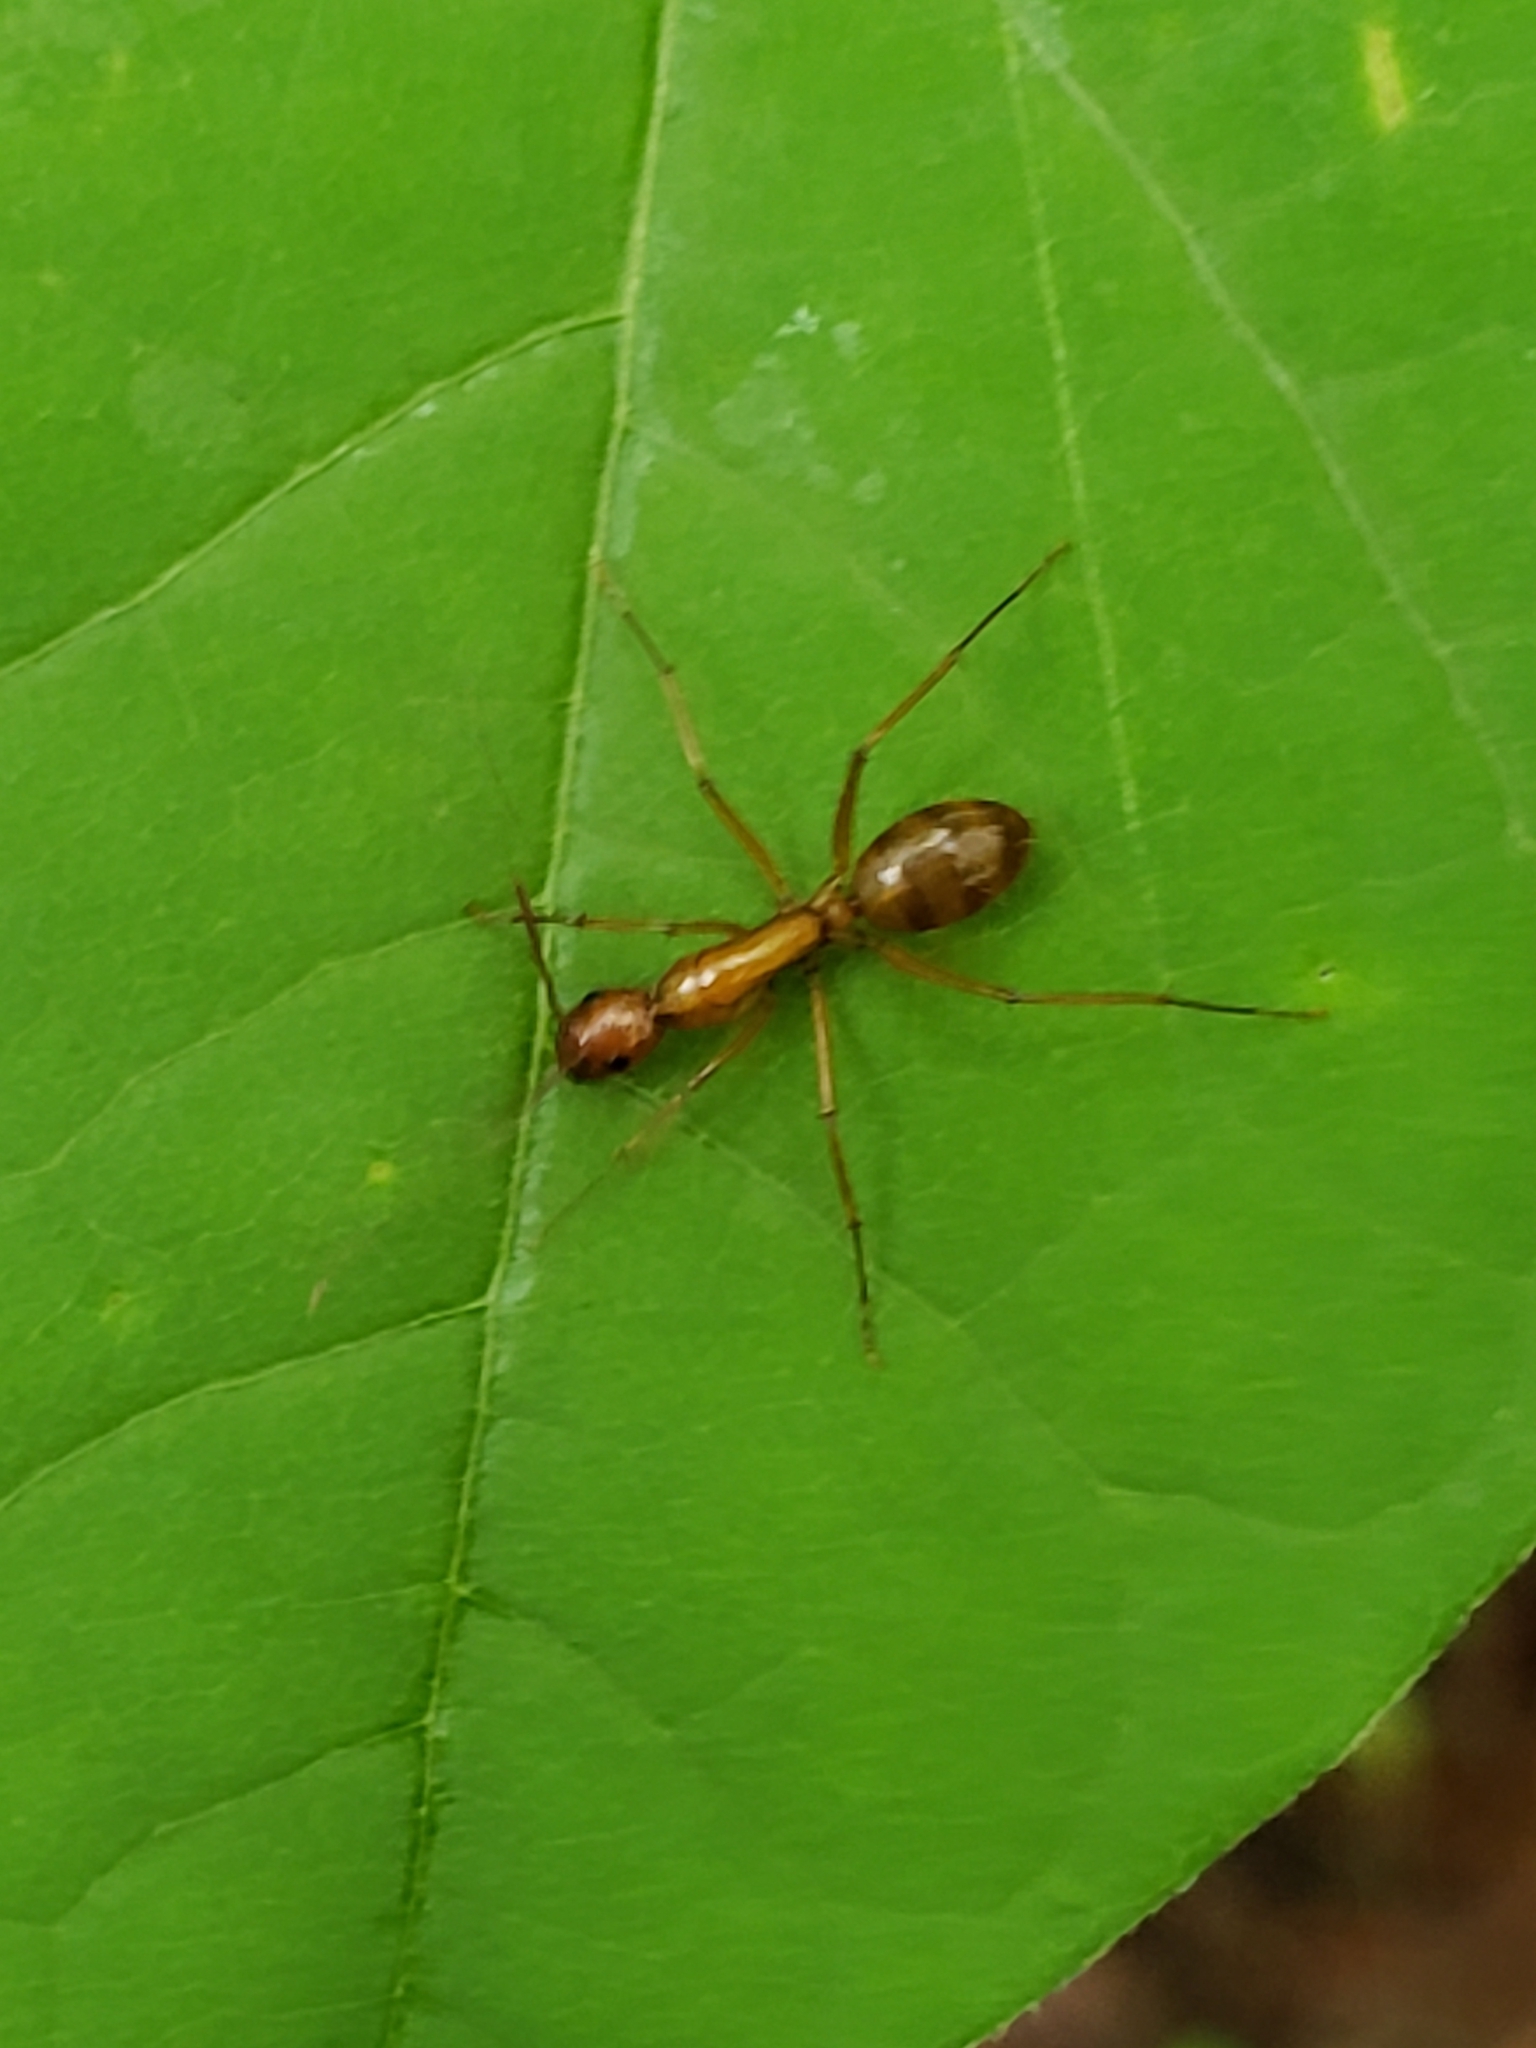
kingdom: Animalia
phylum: Arthropoda
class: Insecta
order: Hymenoptera
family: Formicidae
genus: Camponotus
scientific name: Camponotus castaneus
